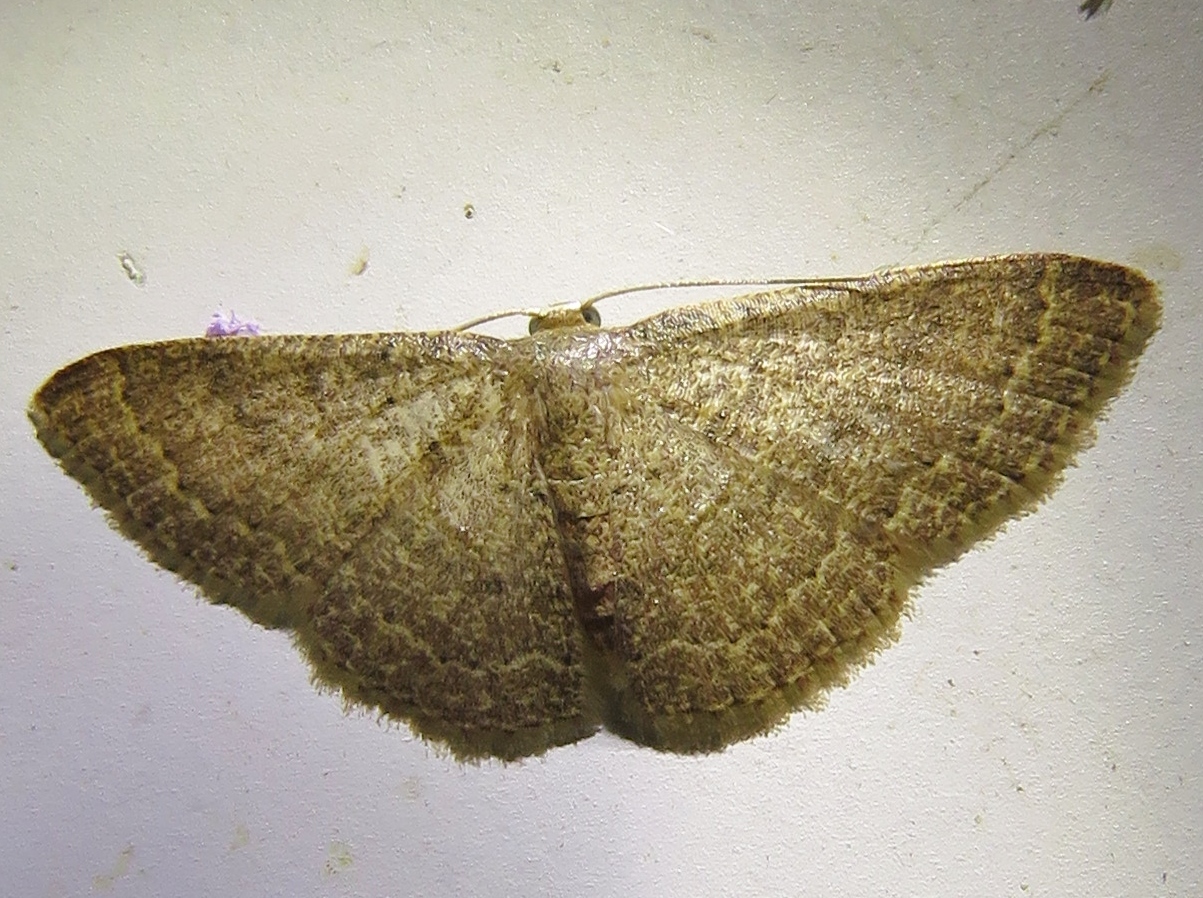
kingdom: Animalia
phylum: Arthropoda
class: Insecta
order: Lepidoptera
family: Geometridae
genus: Pleuroprucha
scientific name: Pleuroprucha insulsaria
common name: Common tan wave
